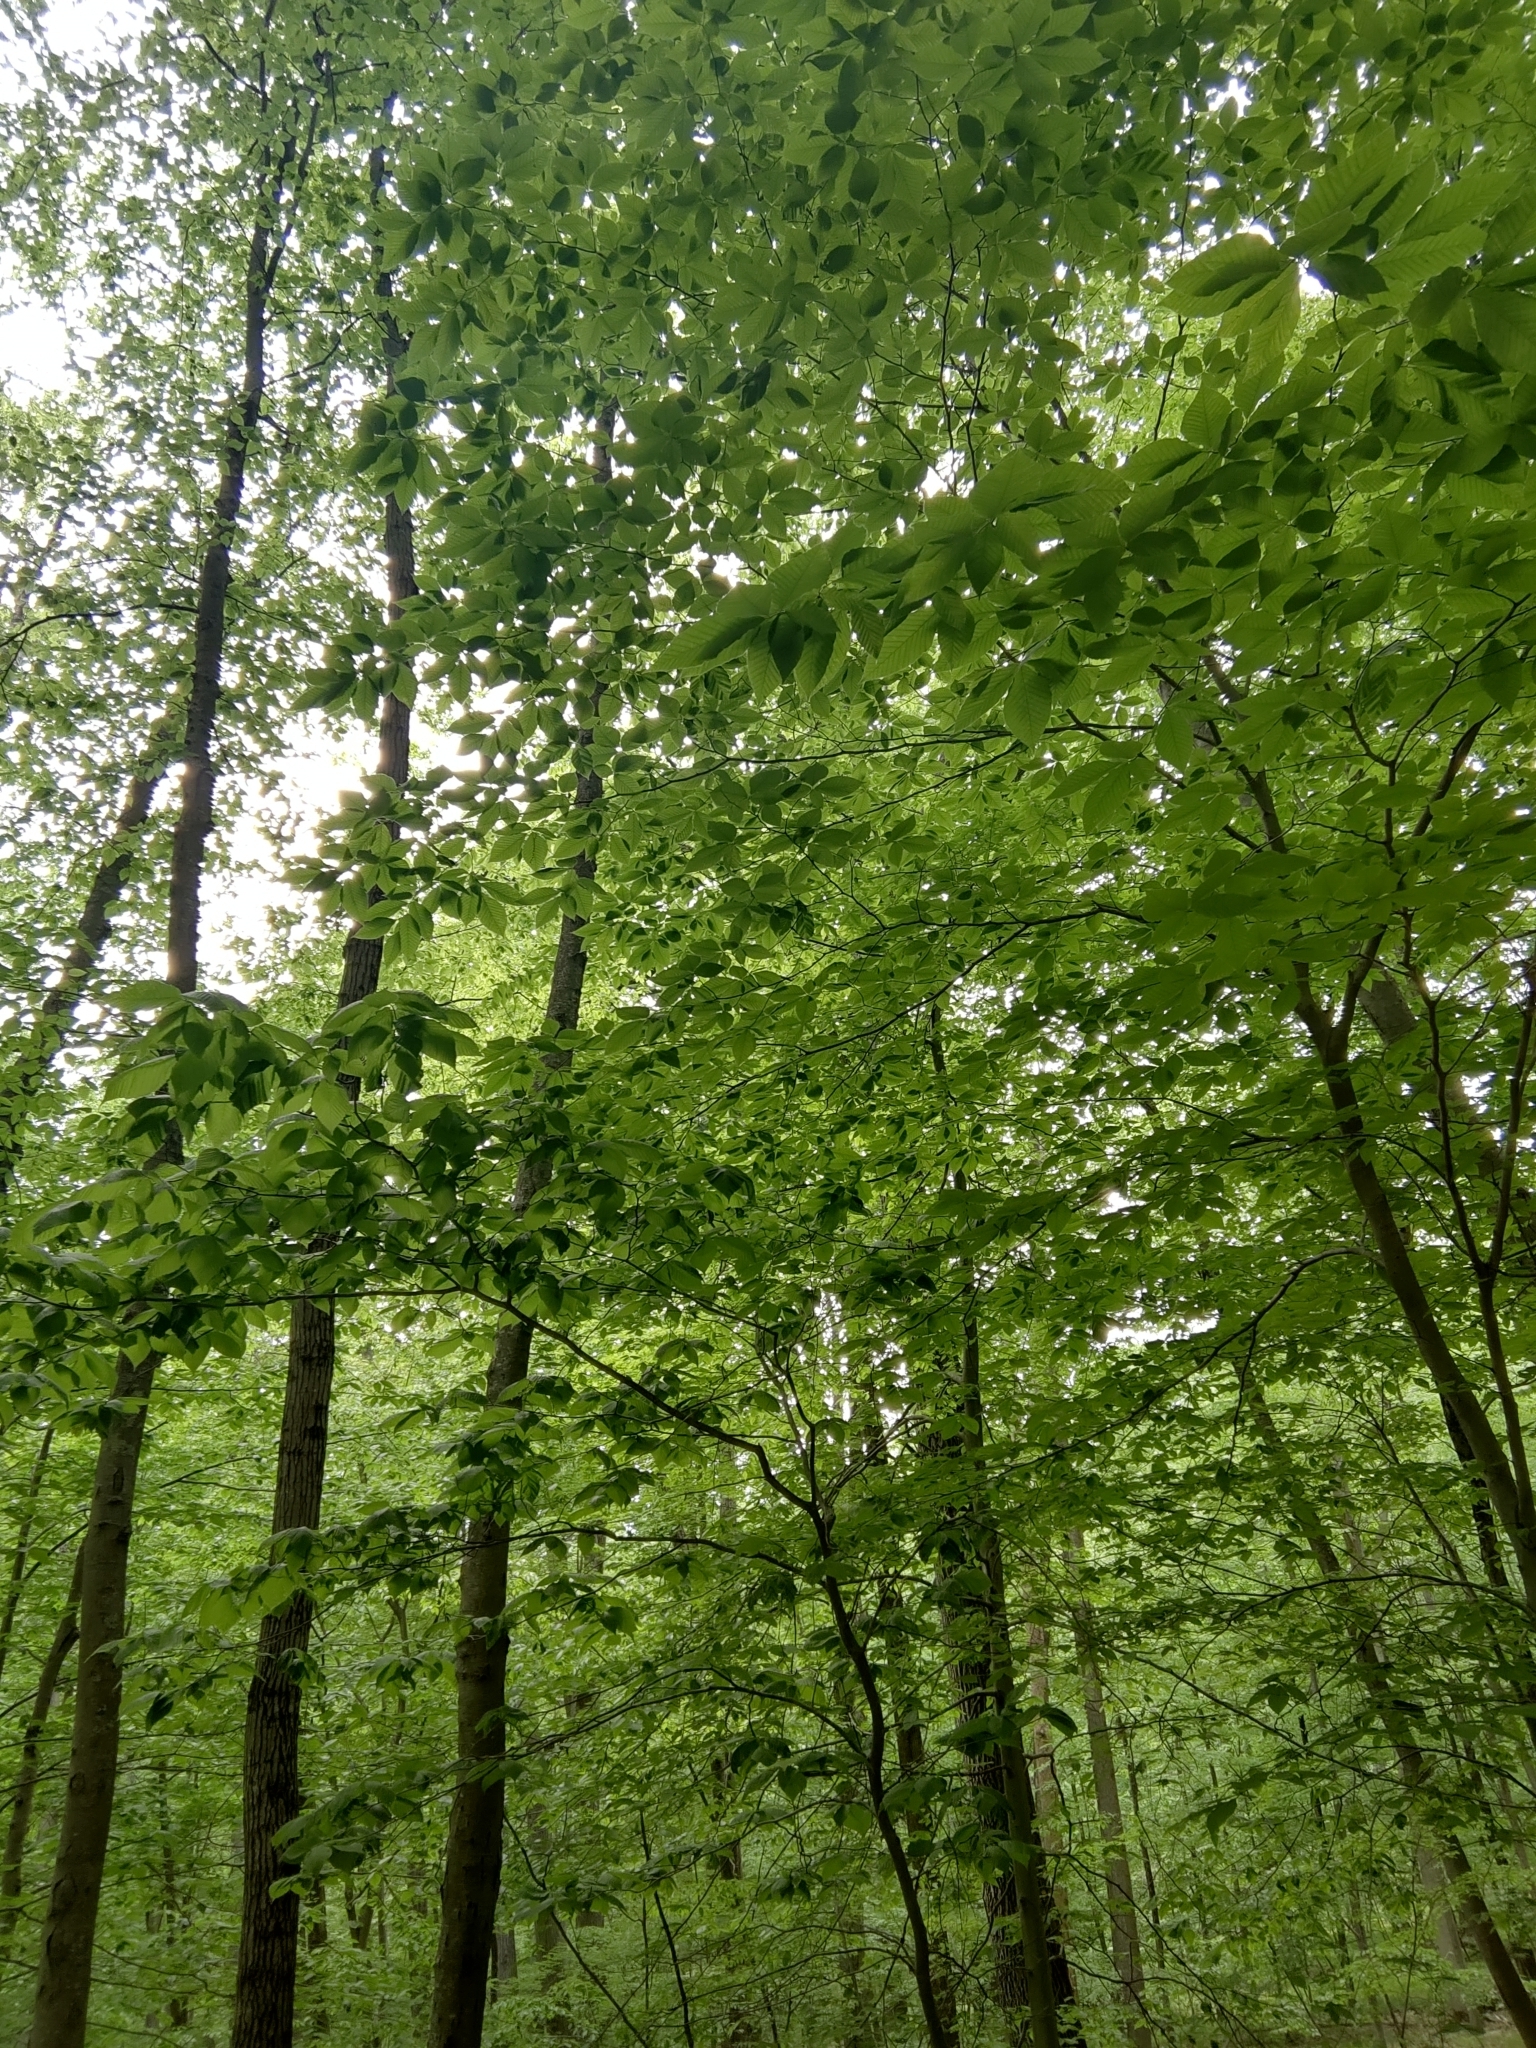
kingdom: Animalia
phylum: Nematoda
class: Chromadorea
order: Rhabditida
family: Anguinidae
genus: Litylenchus
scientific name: Litylenchus crenatae
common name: Beech leaf disease
